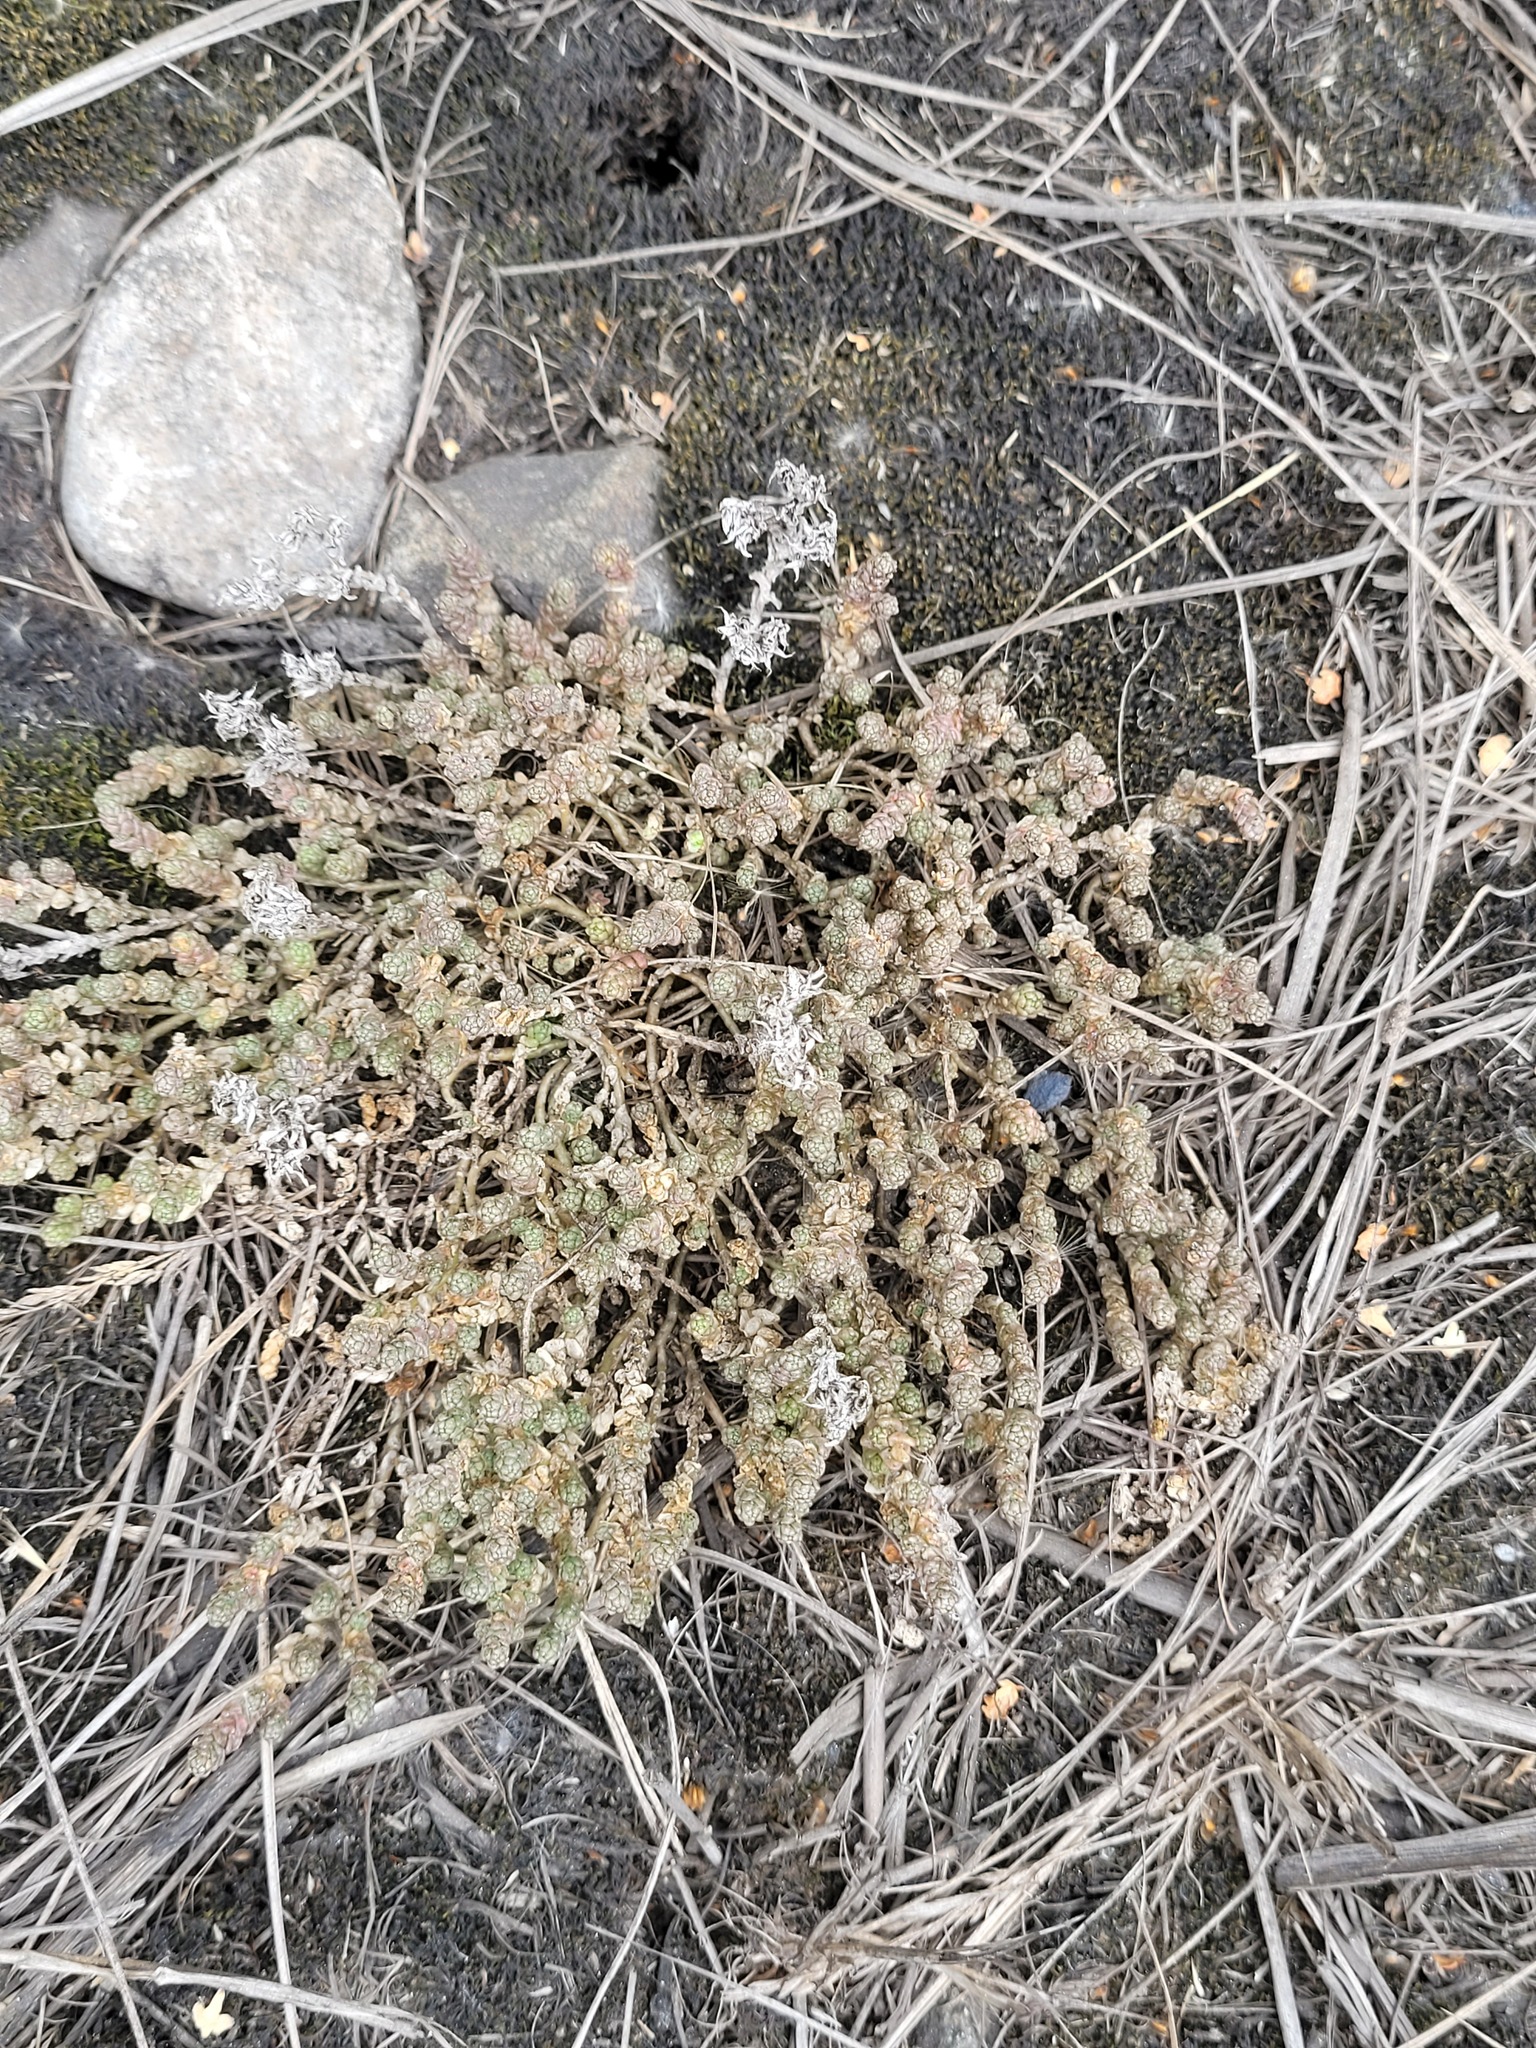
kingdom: Plantae
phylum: Tracheophyta
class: Magnoliopsida
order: Saxifragales
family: Crassulaceae
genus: Sedum
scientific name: Sedum acre
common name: Biting stonecrop
